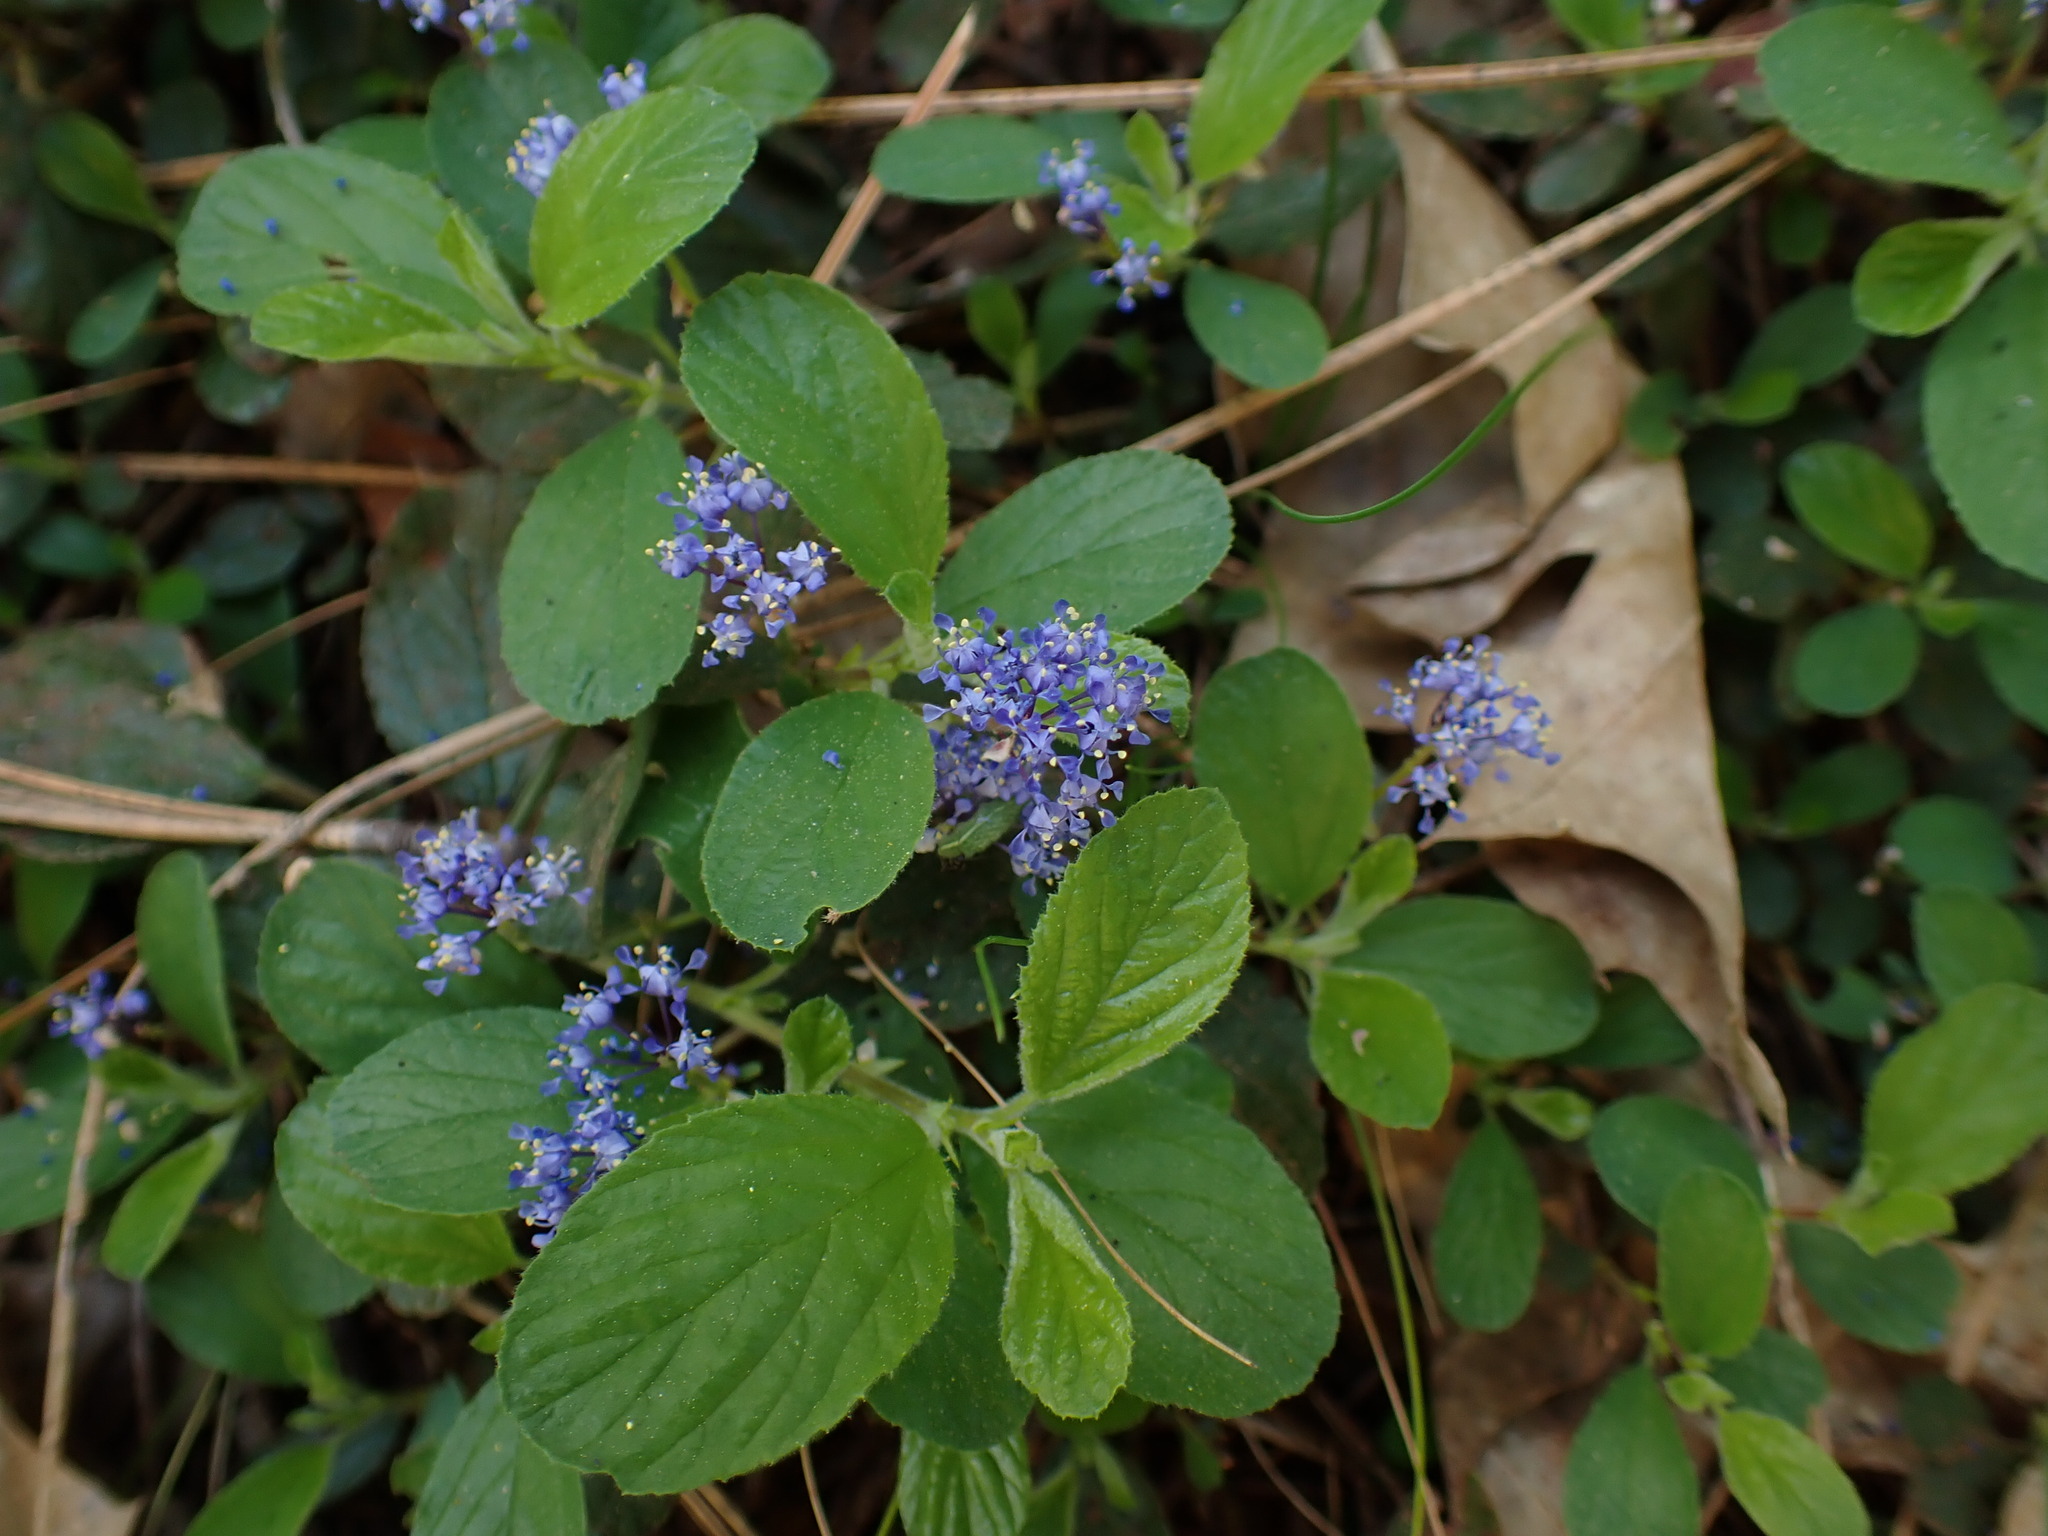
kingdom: Plantae
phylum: Tracheophyta
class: Magnoliopsida
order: Rosales
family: Rhamnaceae
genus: Ceanothus
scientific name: Ceanothus lemmonii
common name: Lemmon's ceanothus
